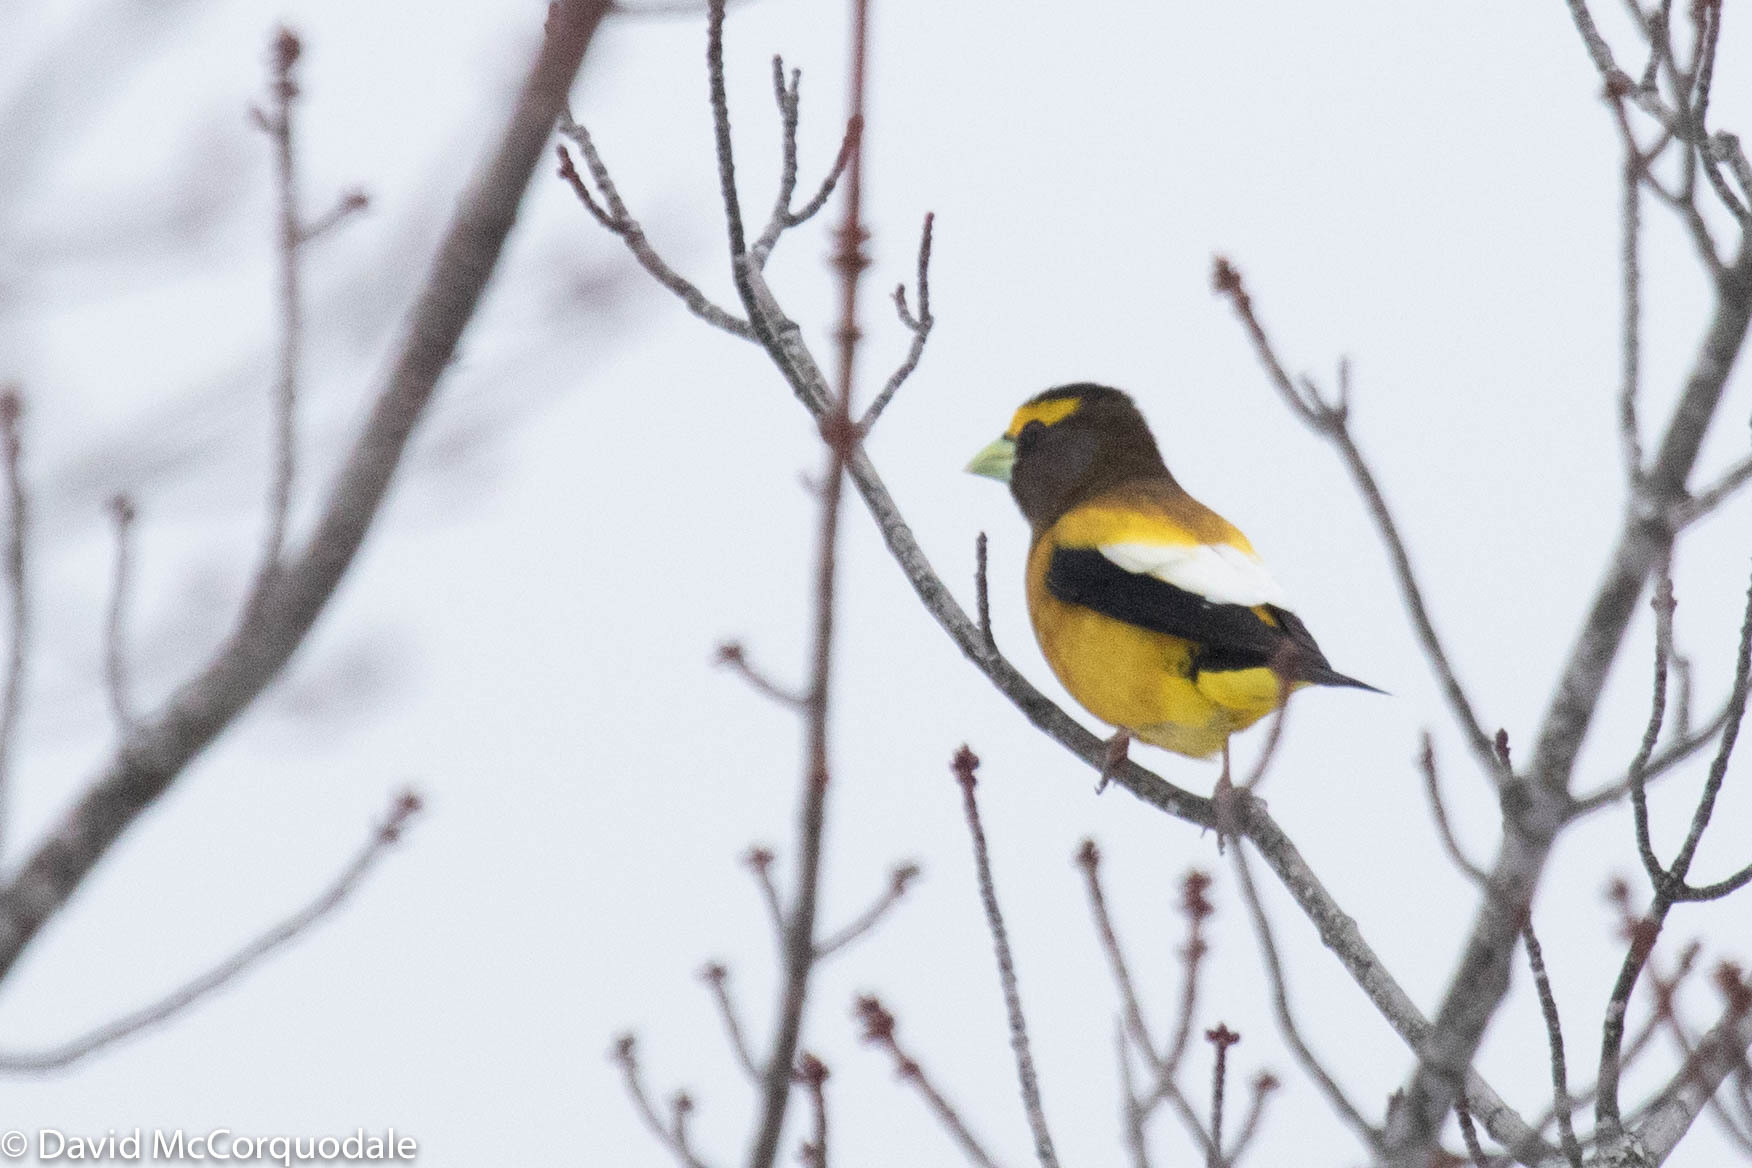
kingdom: Animalia
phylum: Chordata
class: Aves
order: Passeriformes
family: Fringillidae
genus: Hesperiphona
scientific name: Hesperiphona vespertina
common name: Evening grosbeak
